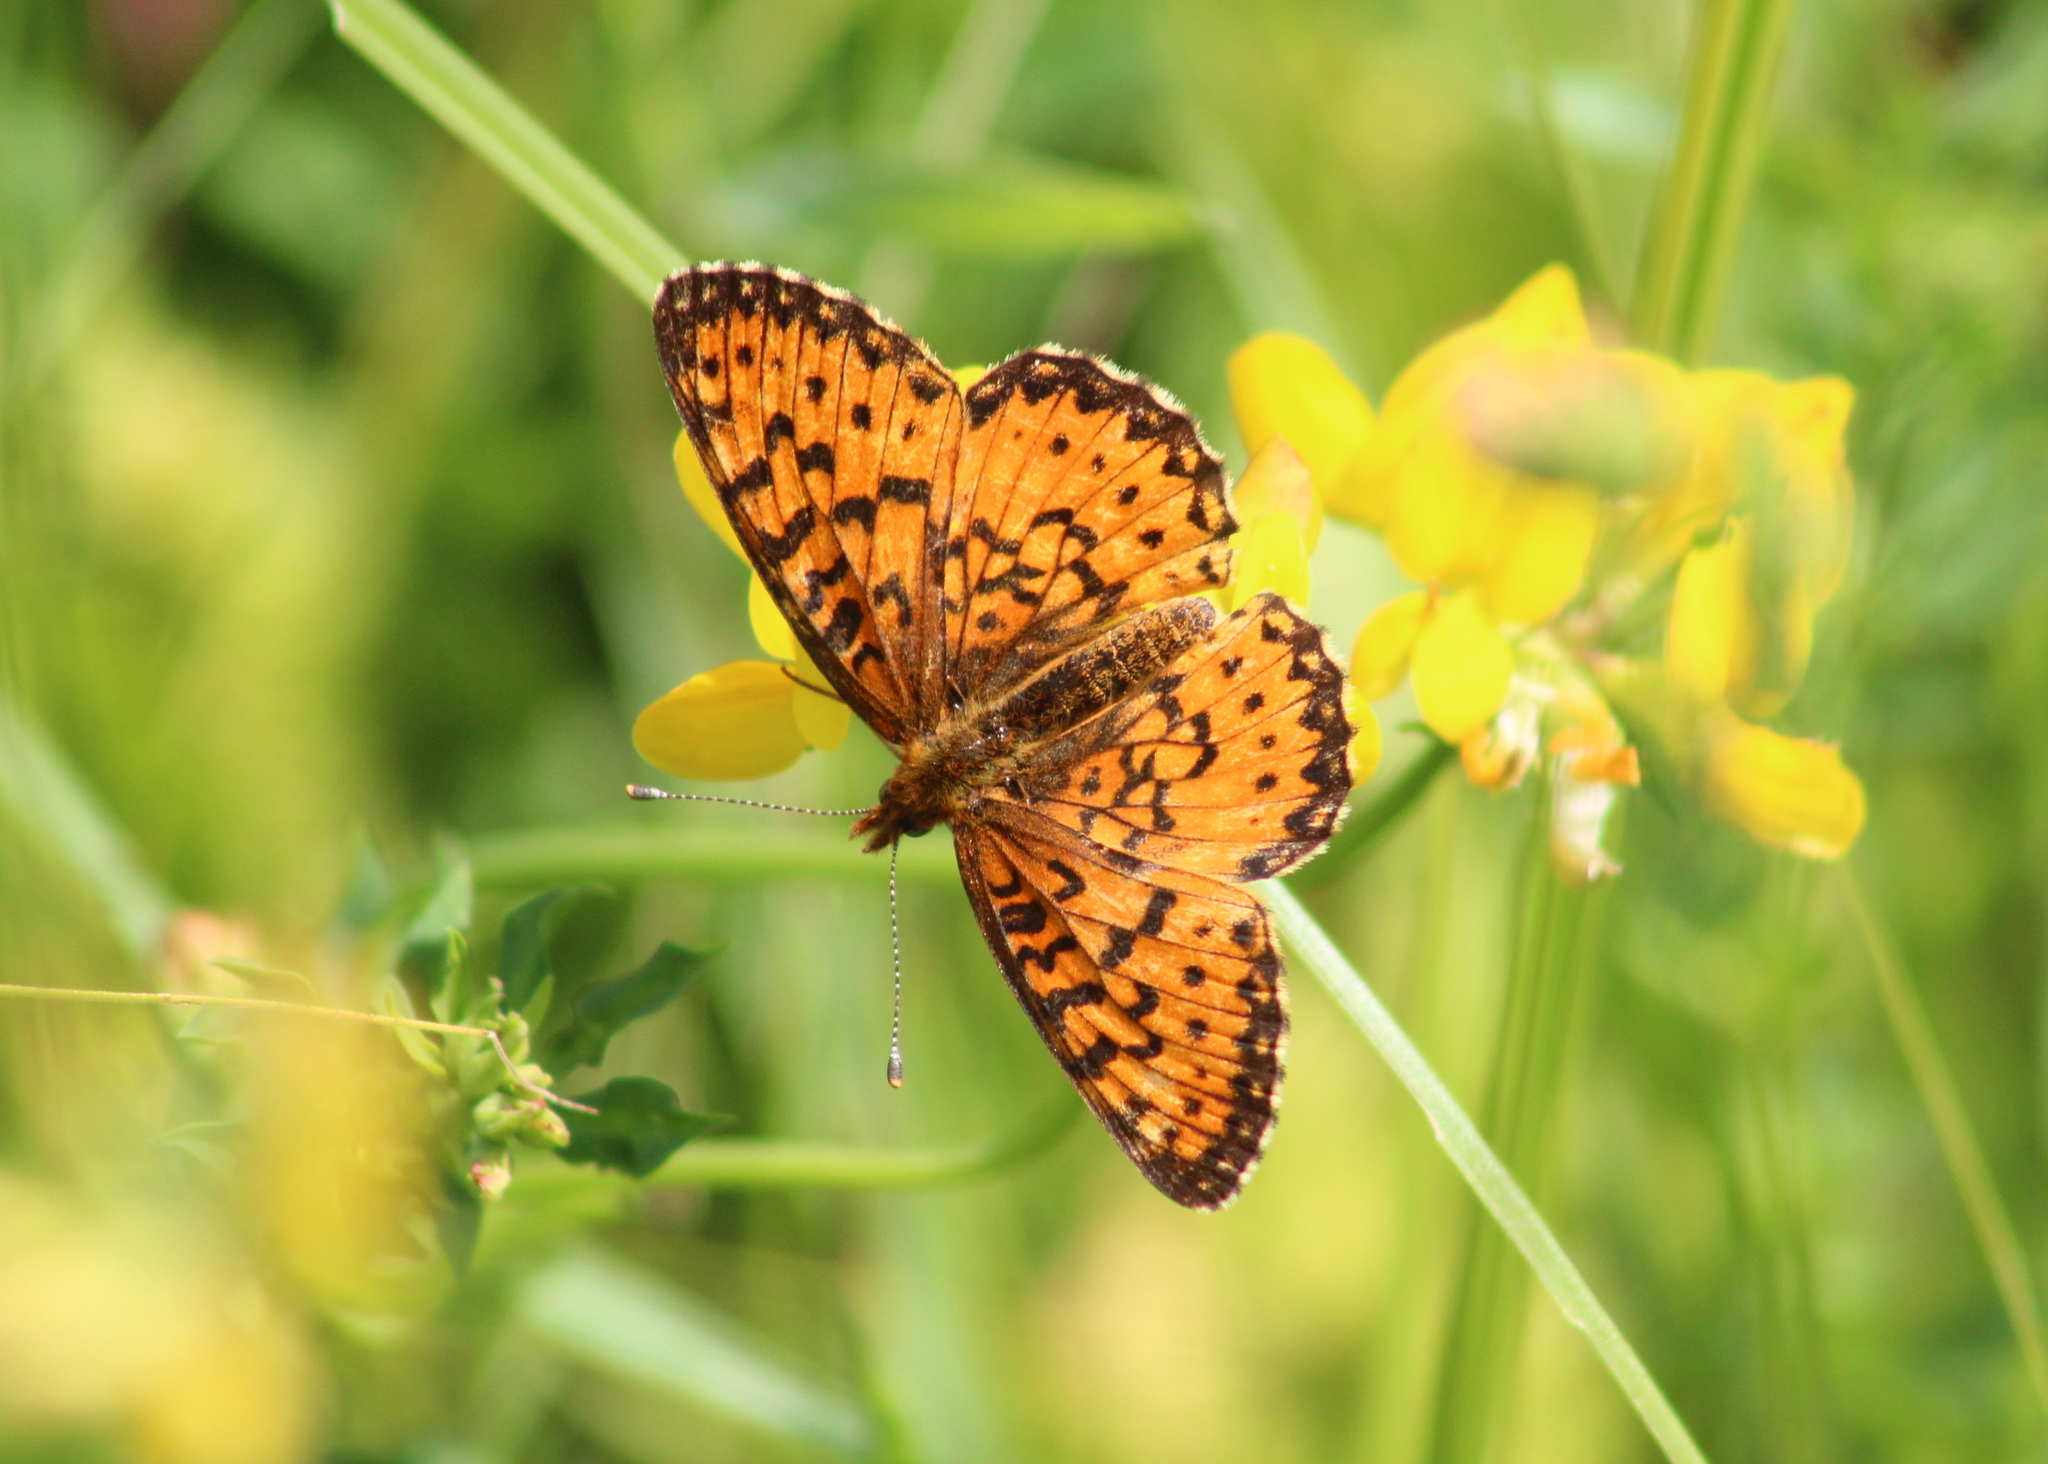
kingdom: Animalia
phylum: Arthropoda
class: Insecta
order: Lepidoptera
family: Nymphalidae
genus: Boloria
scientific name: Boloria
